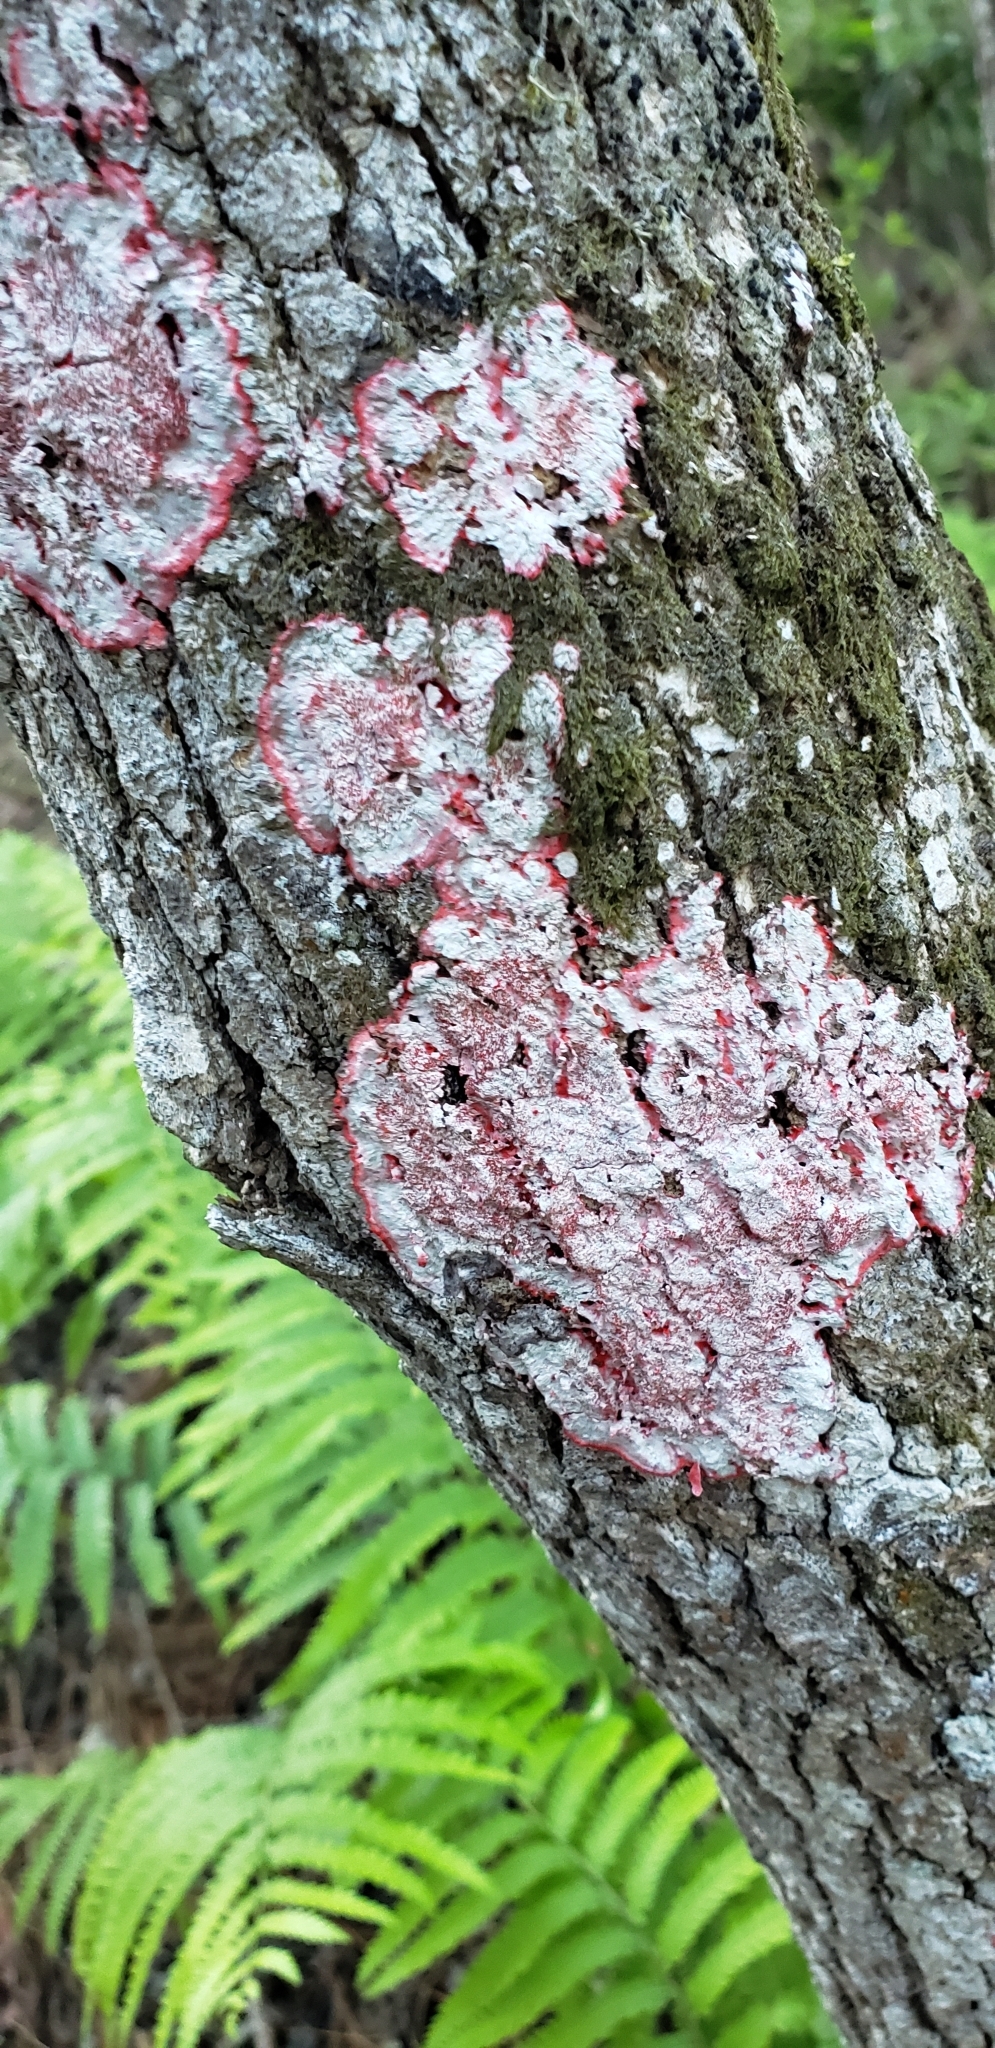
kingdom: Fungi
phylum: Ascomycota
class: Arthoniomycetes
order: Arthoniales
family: Arthoniaceae
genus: Herpothallon
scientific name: Herpothallon rubrocinctum
